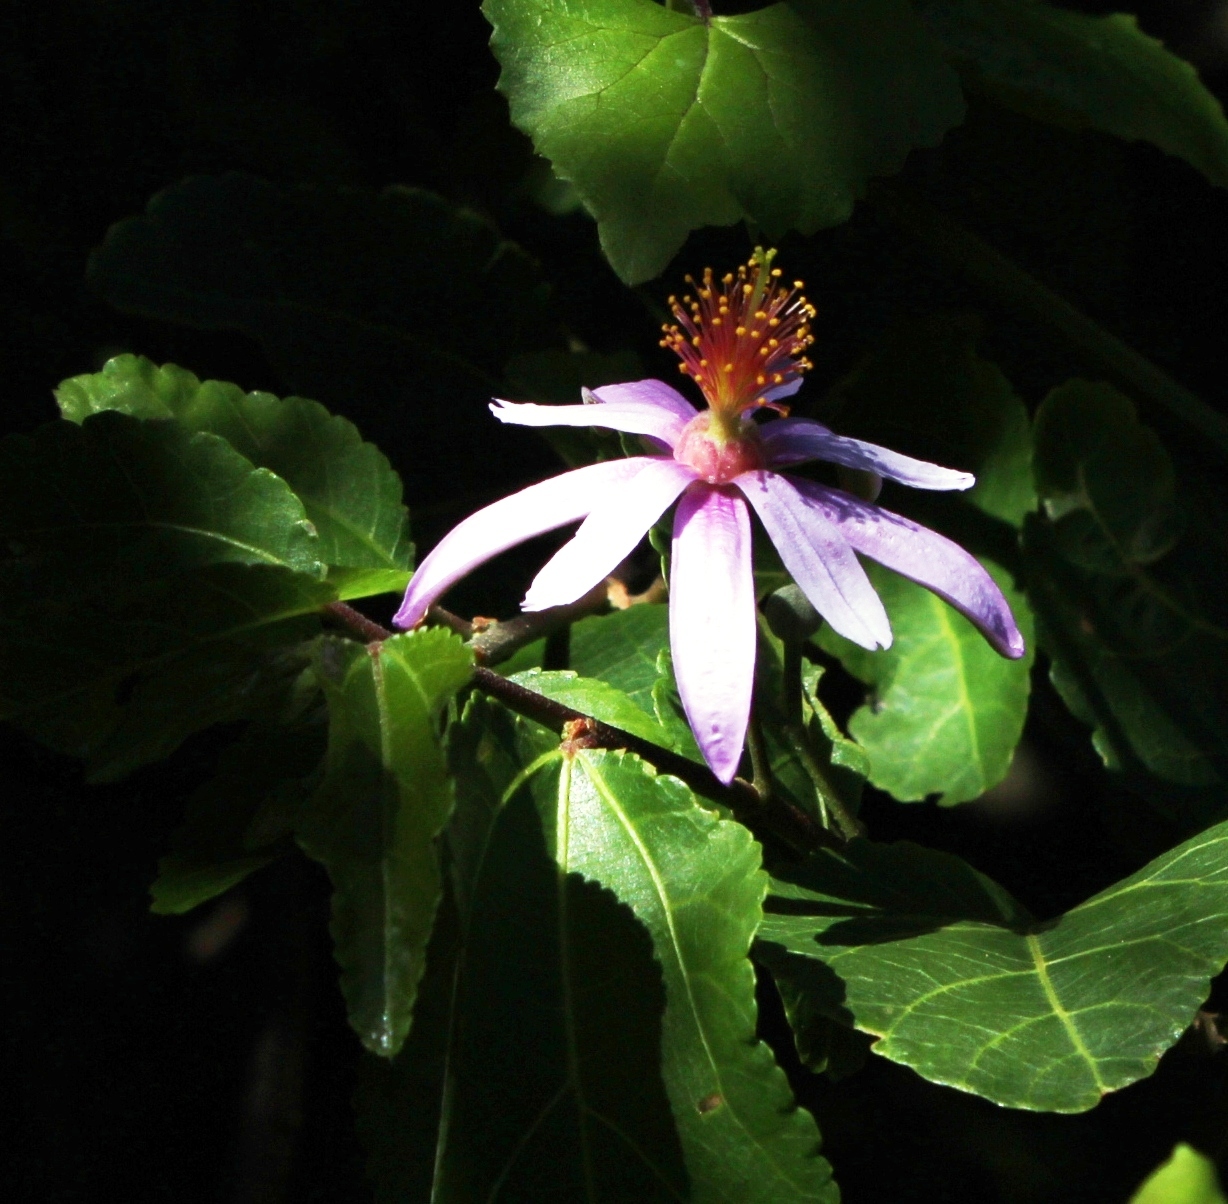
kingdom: Plantae
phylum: Tracheophyta
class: Magnoliopsida
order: Malvales
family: Malvaceae
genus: Grewia
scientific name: Grewia occidentalis
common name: Crossberry
